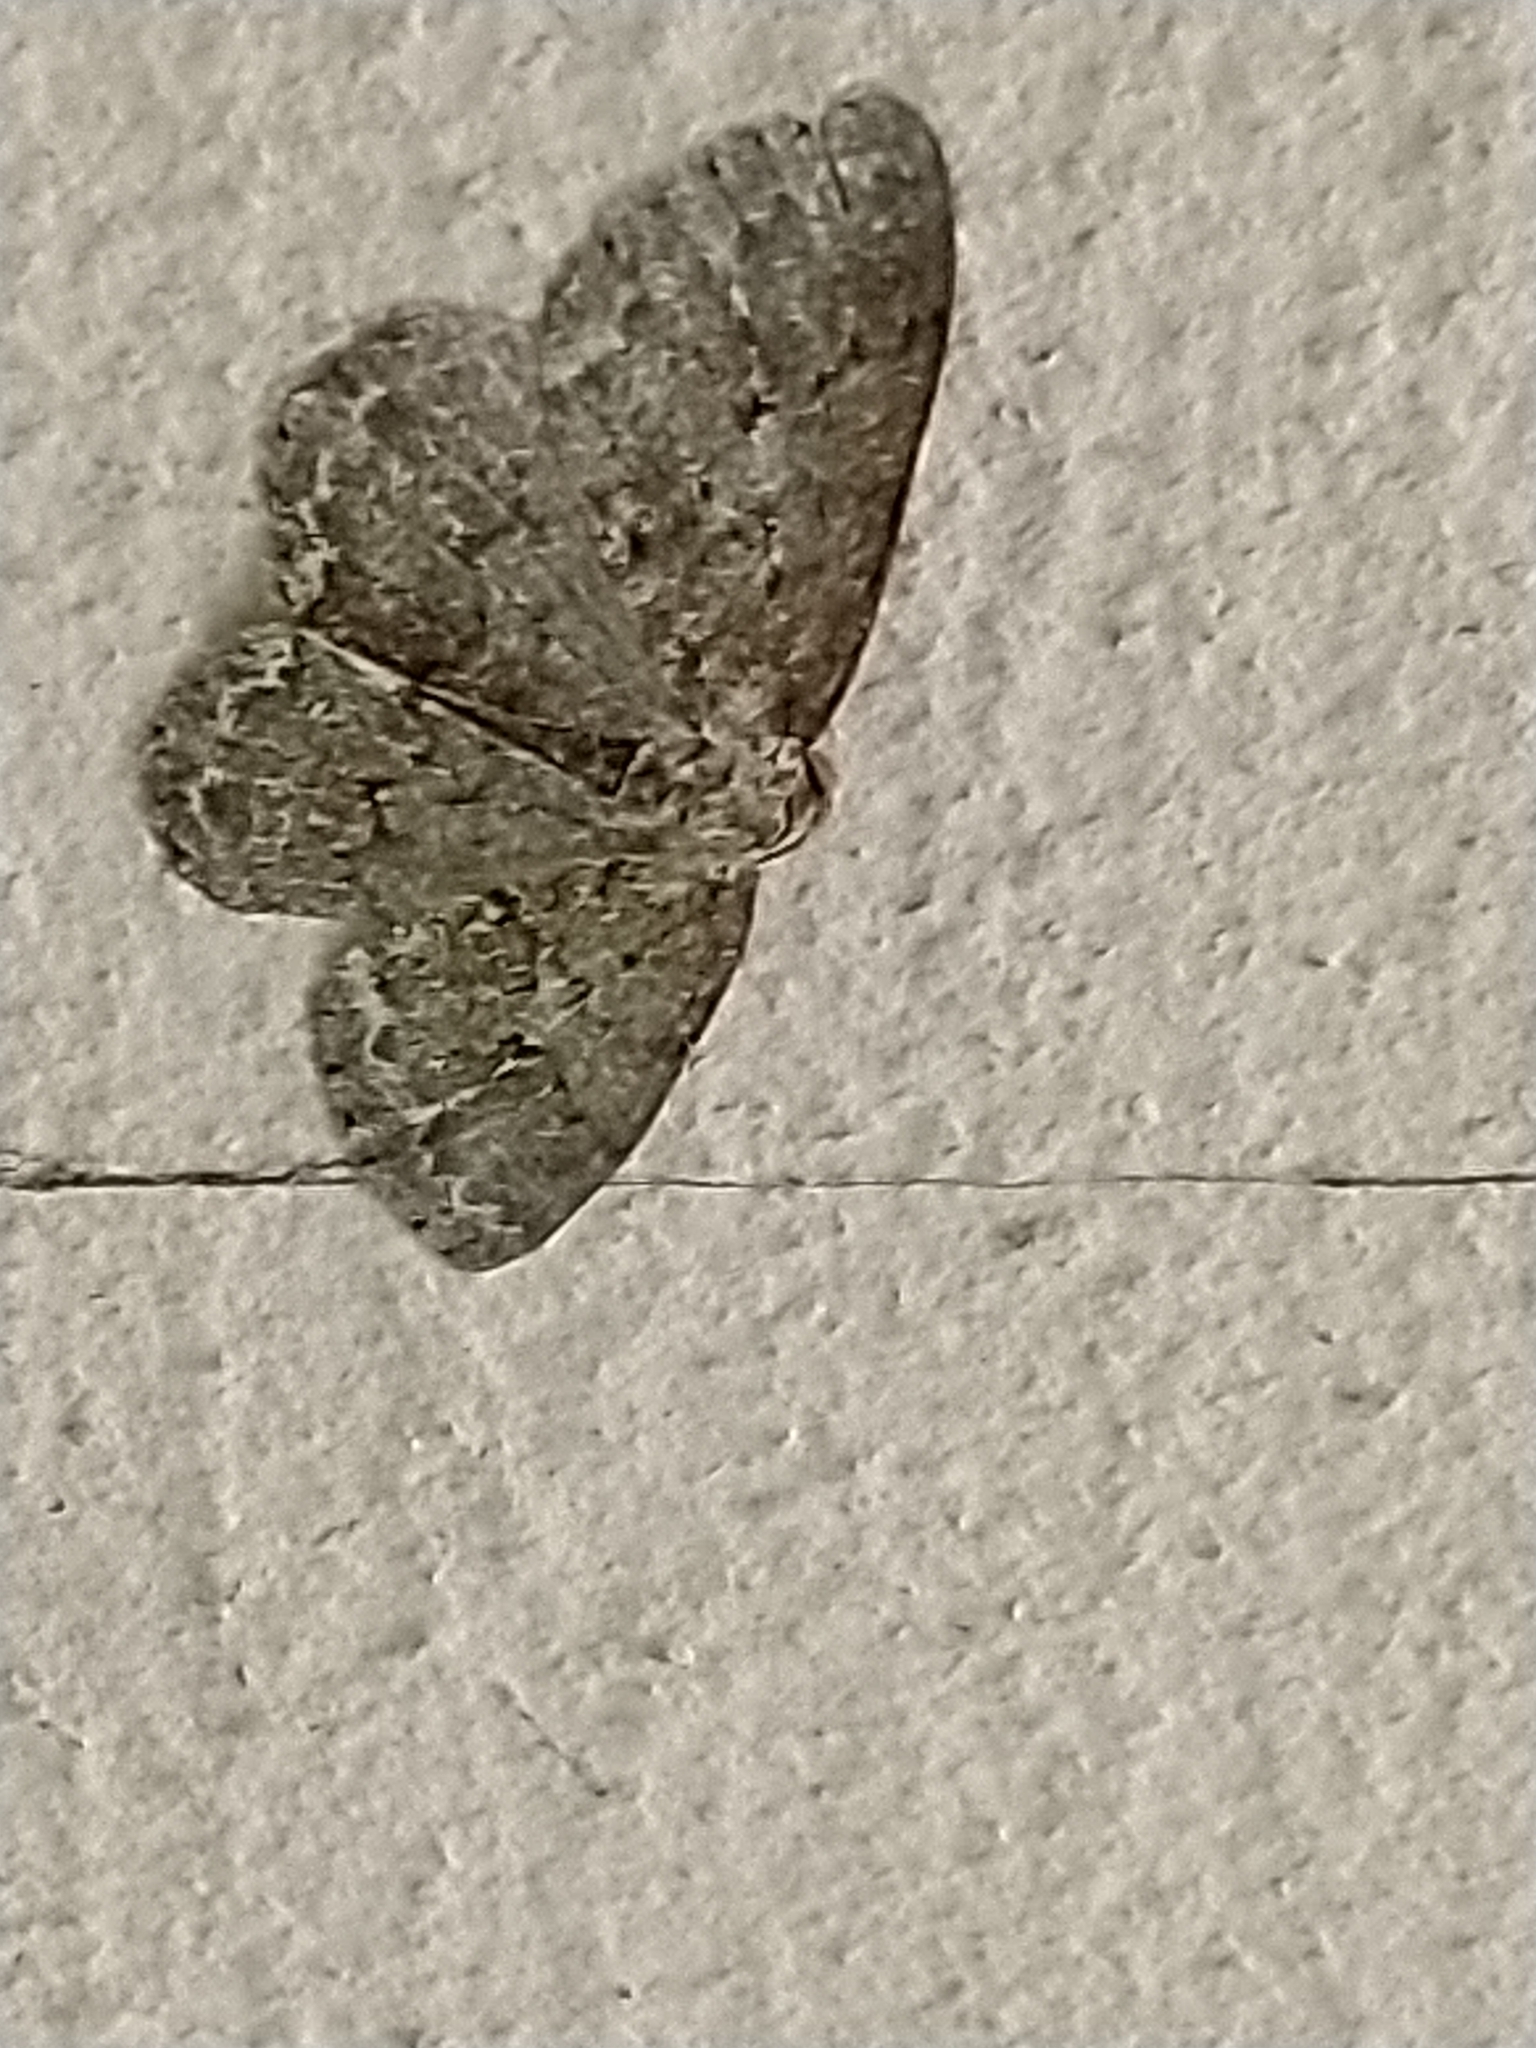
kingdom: Animalia
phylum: Arthropoda
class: Insecta
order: Lepidoptera
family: Geometridae
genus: Ectropis
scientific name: Ectropis crepuscularia
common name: Engrailed
